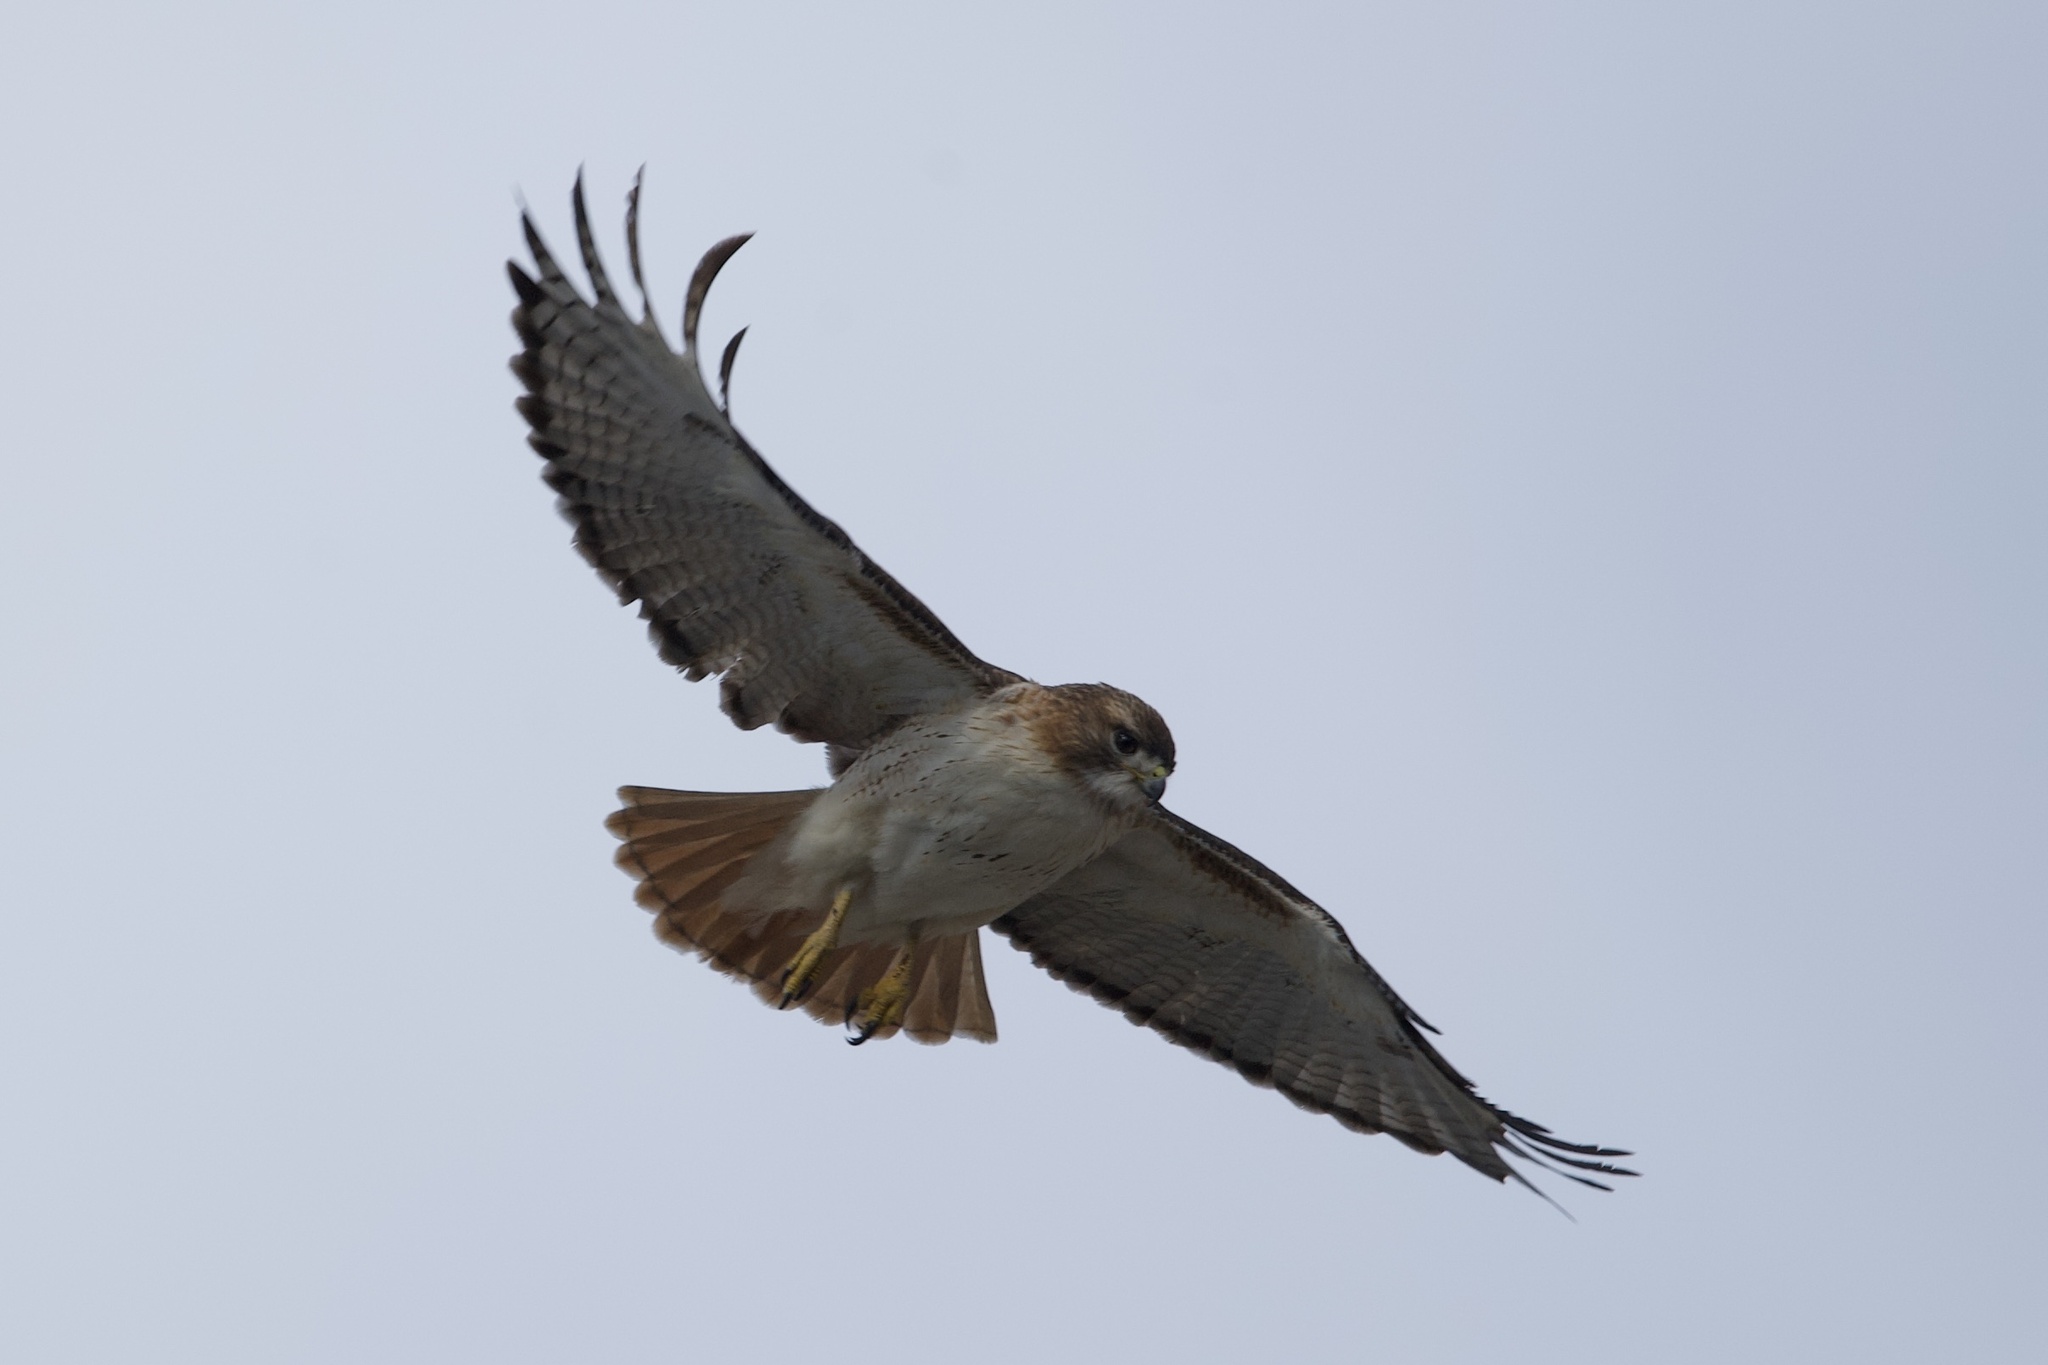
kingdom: Animalia
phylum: Chordata
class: Aves
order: Accipitriformes
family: Accipitridae
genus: Buteo
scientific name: Buteo jamaicensis
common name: Red-tailed hawk
